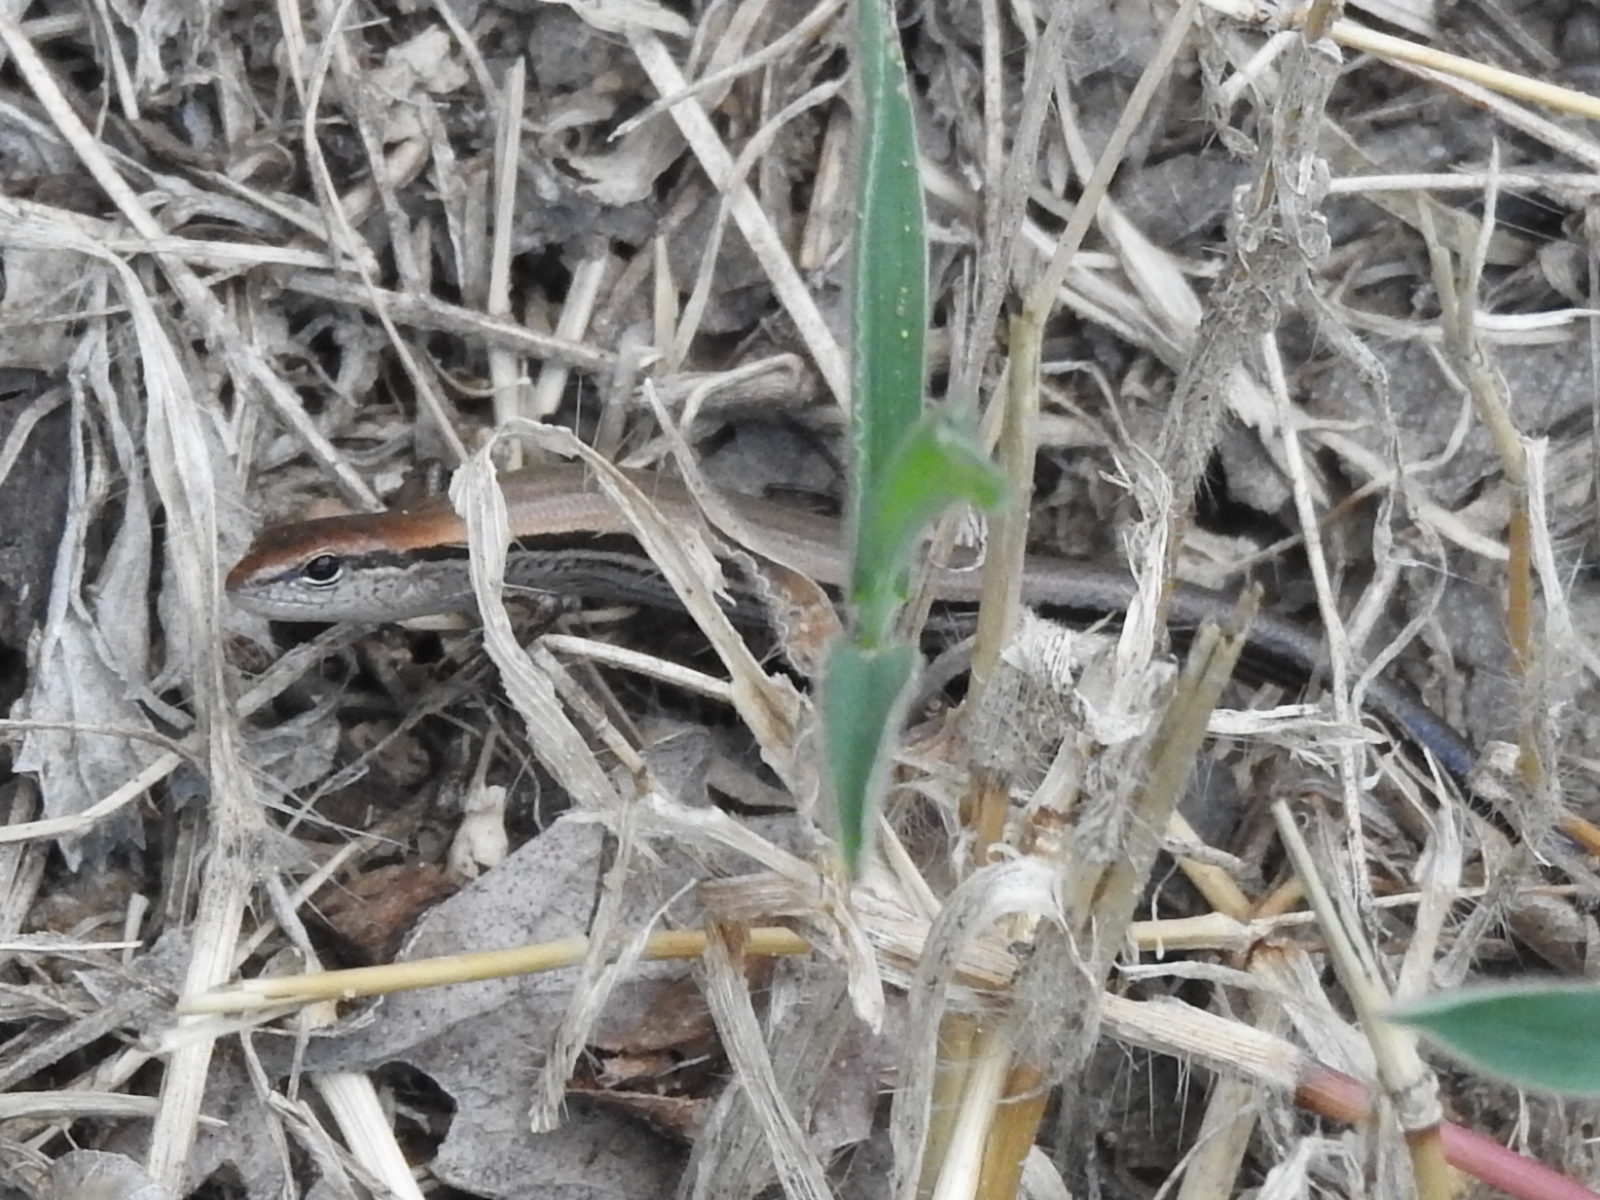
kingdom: Animalia
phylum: Chordata
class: Squamata
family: Scincidae
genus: Scincella
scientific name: Scincella lateralis
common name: Ground skink
